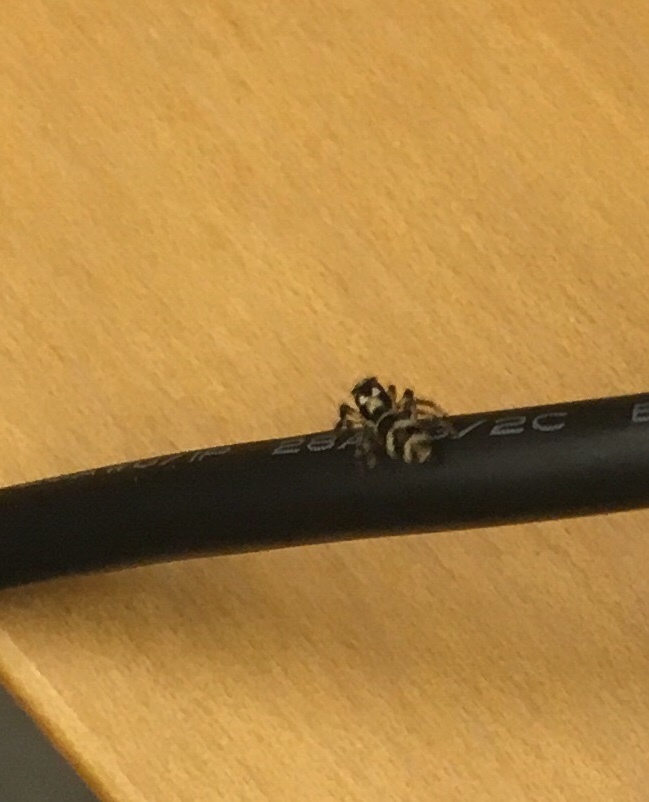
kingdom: Animalia
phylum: Arthropoda
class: Arachnida
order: Araneae
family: Salticidae
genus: Salticus
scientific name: Salticus scenicus
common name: Zebra jumper
